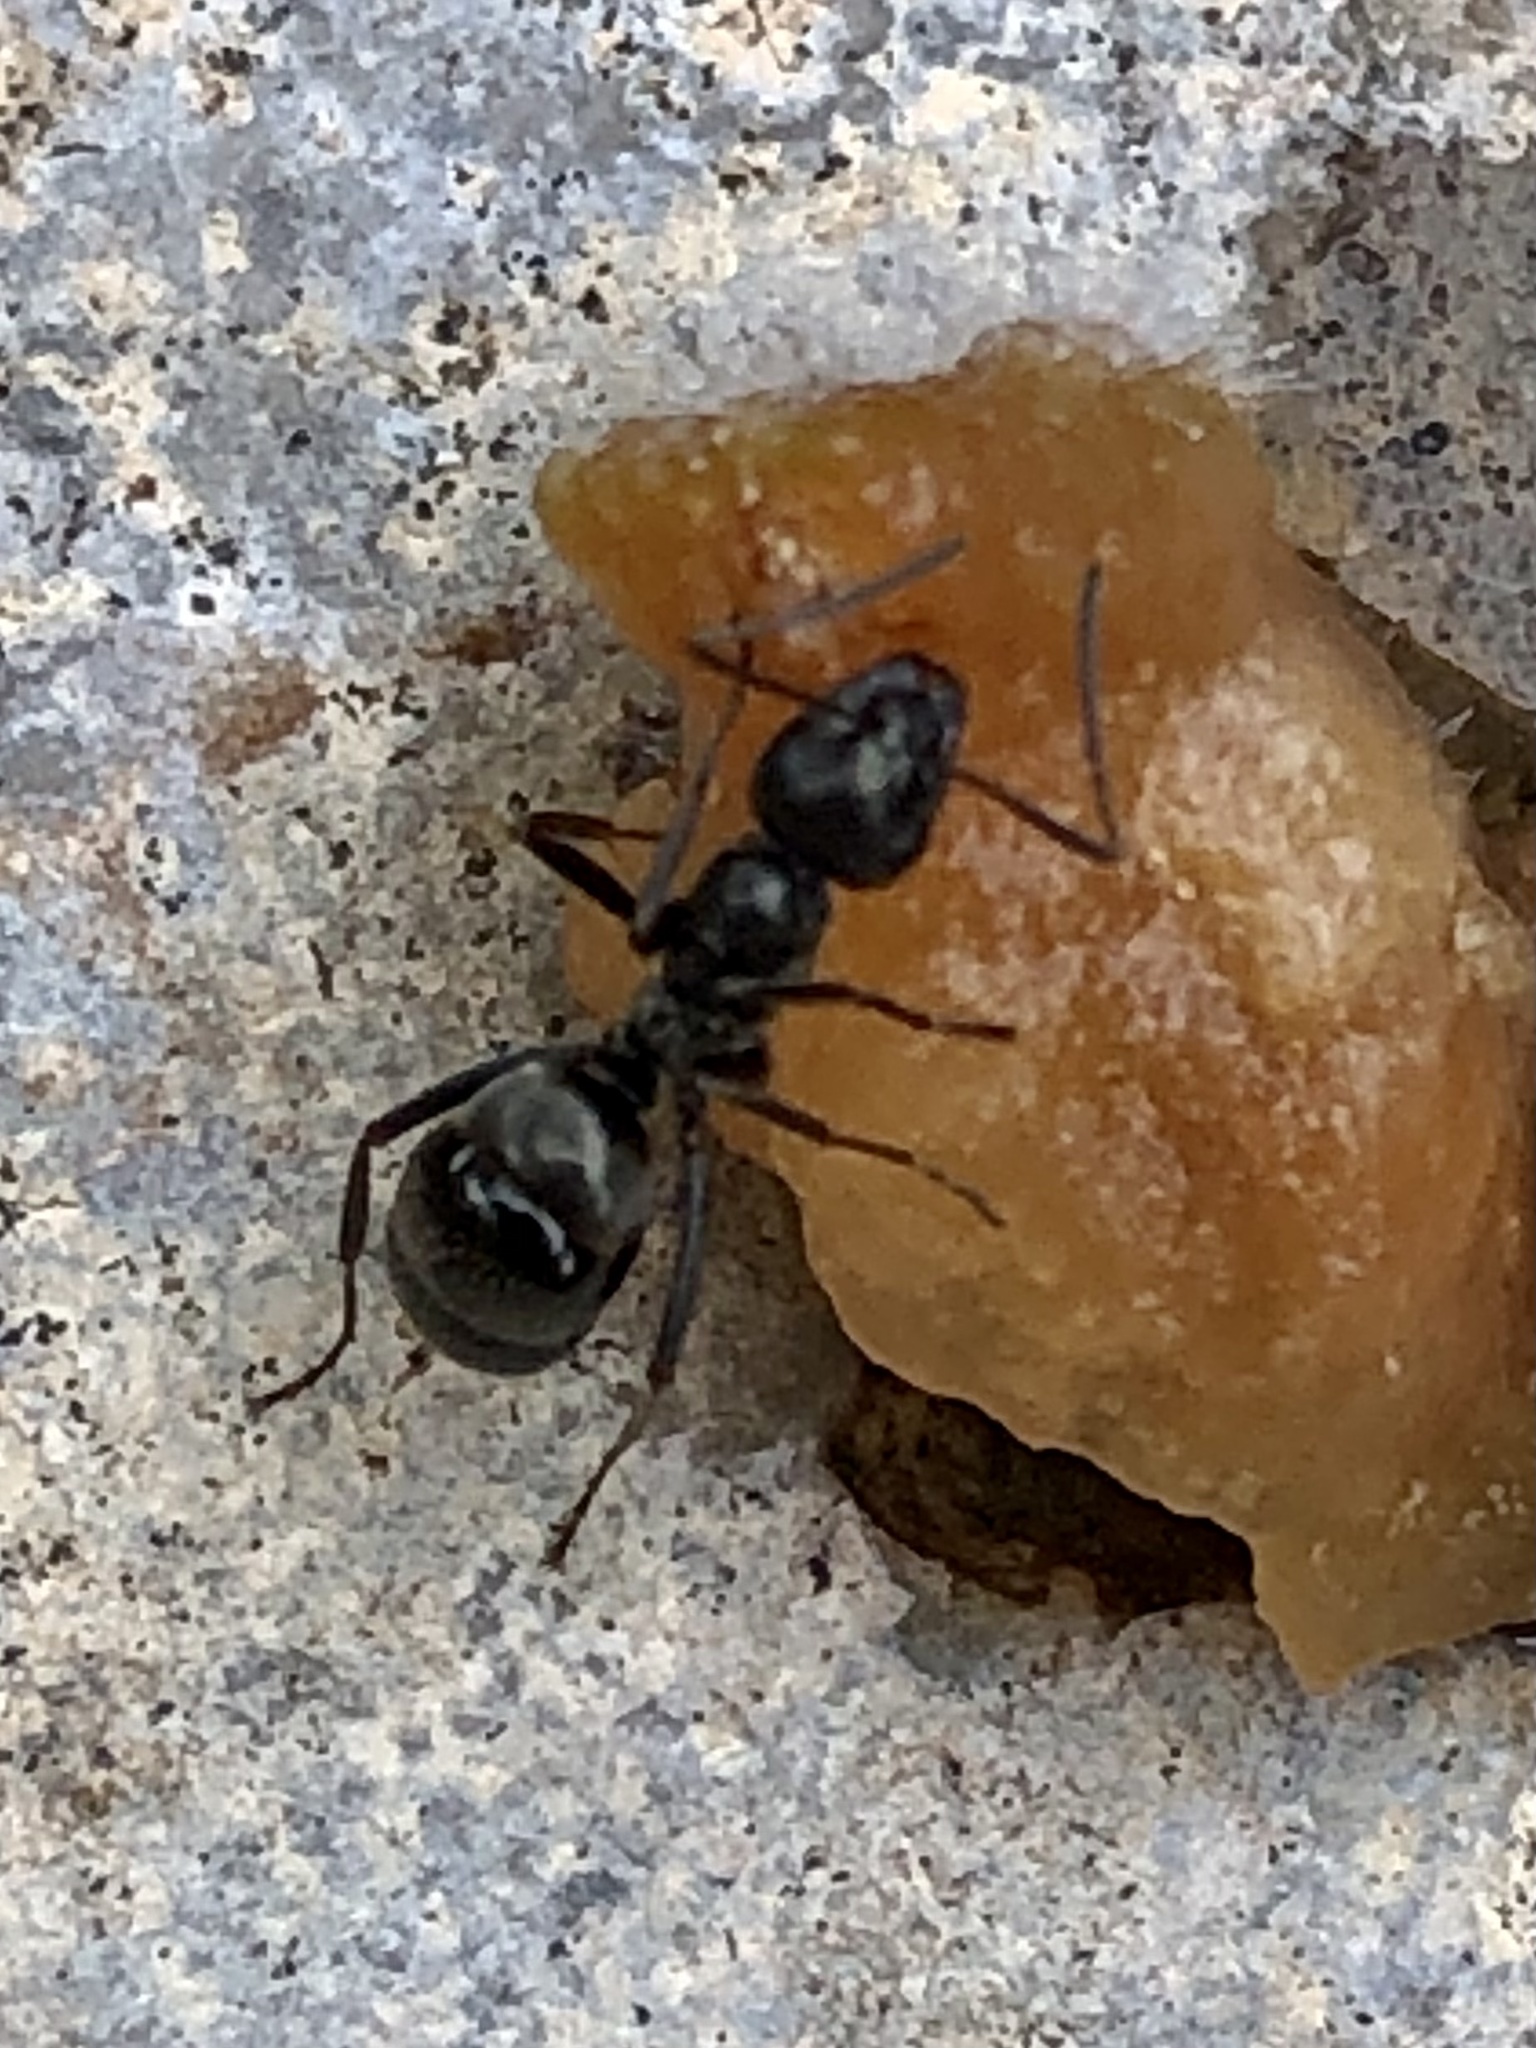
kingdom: Animalia
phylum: Arthropoda
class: Insecta
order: Hymenoptera
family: Formicidae
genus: Formica
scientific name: Formica subsericea
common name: Silky field ant
